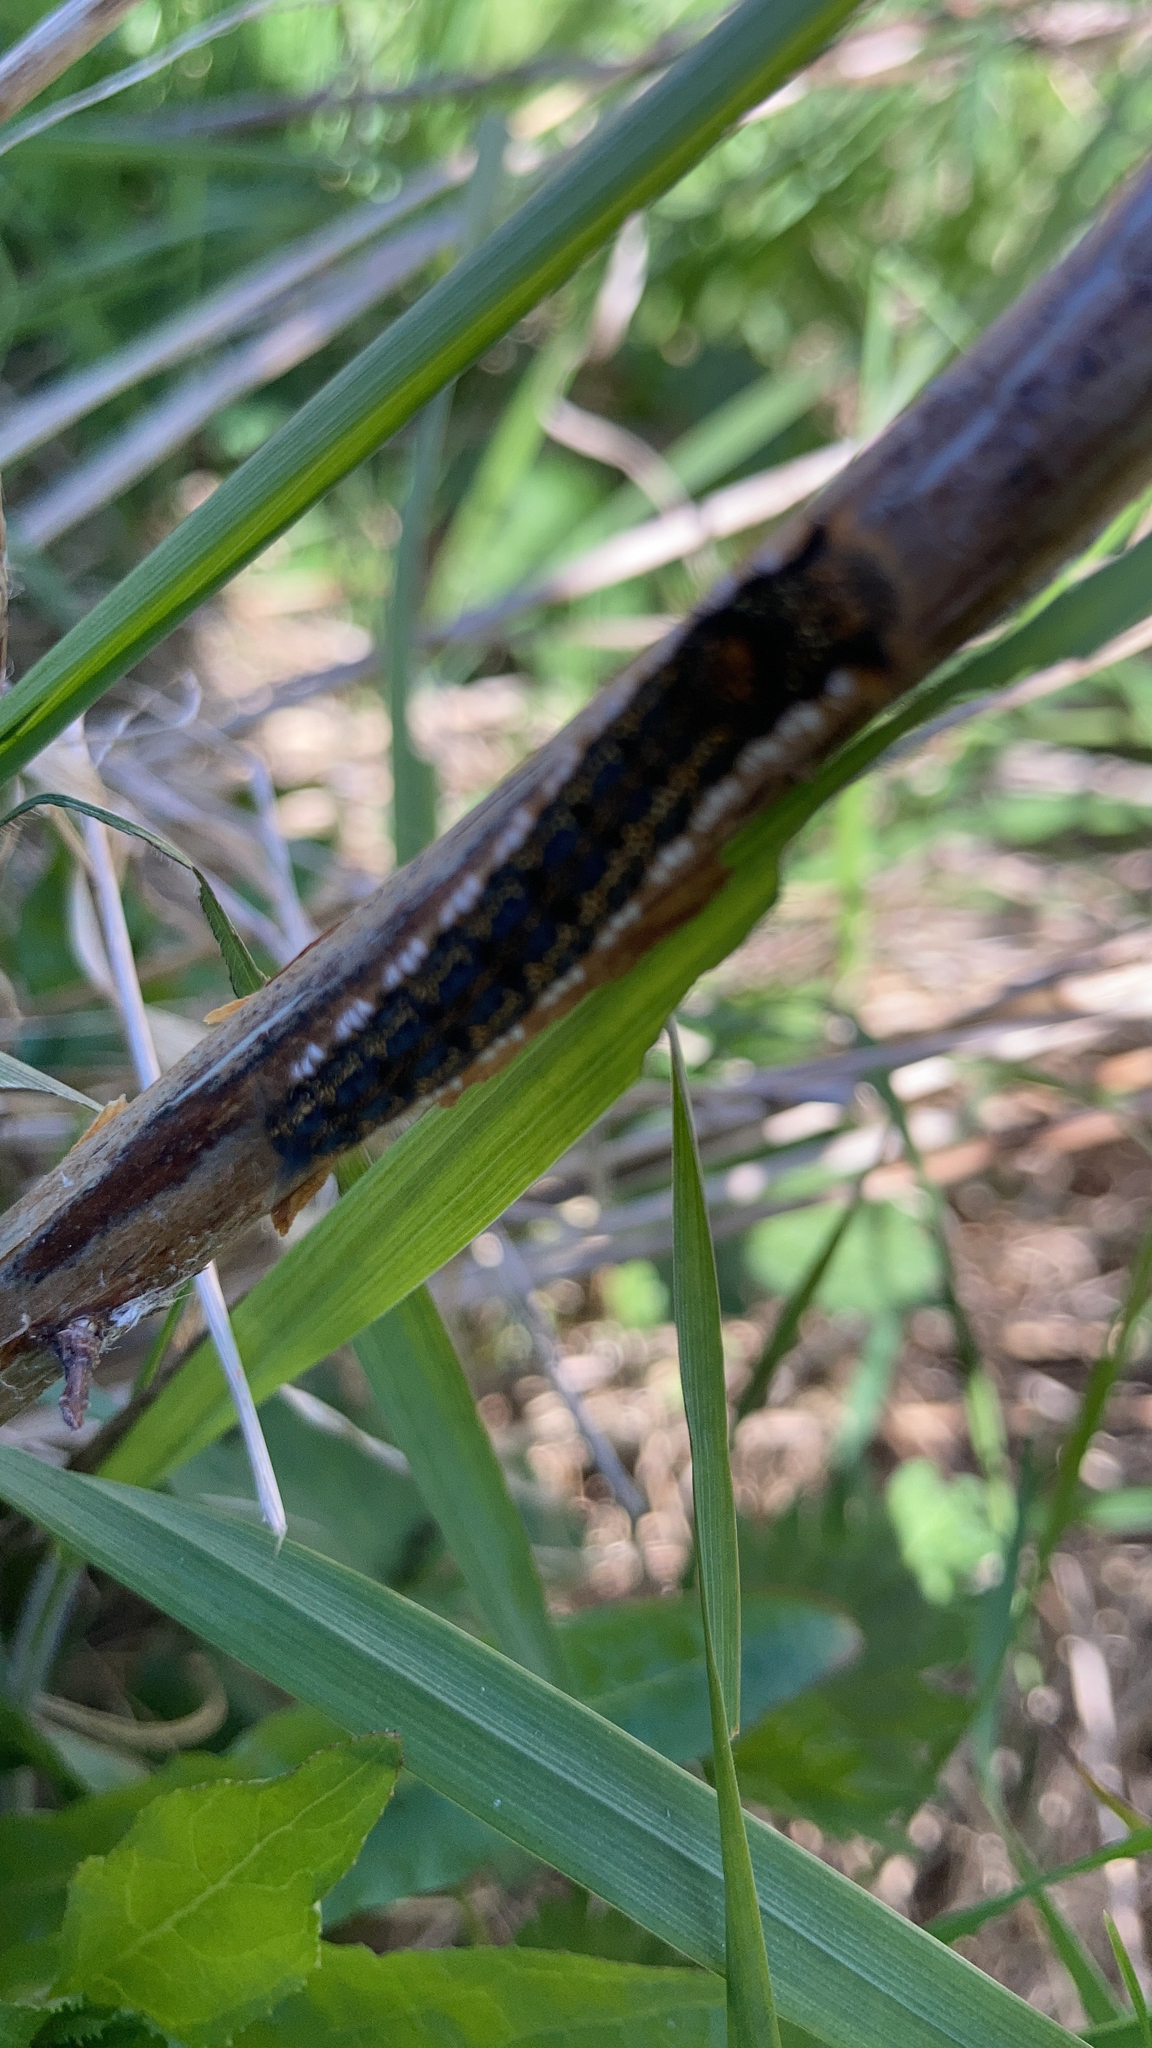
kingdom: Animalia
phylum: Arthropoda
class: Insecta
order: Lepidoptera
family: Lasiocampidae
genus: Euthrix
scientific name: Euthrix potatoria
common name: Drinker
